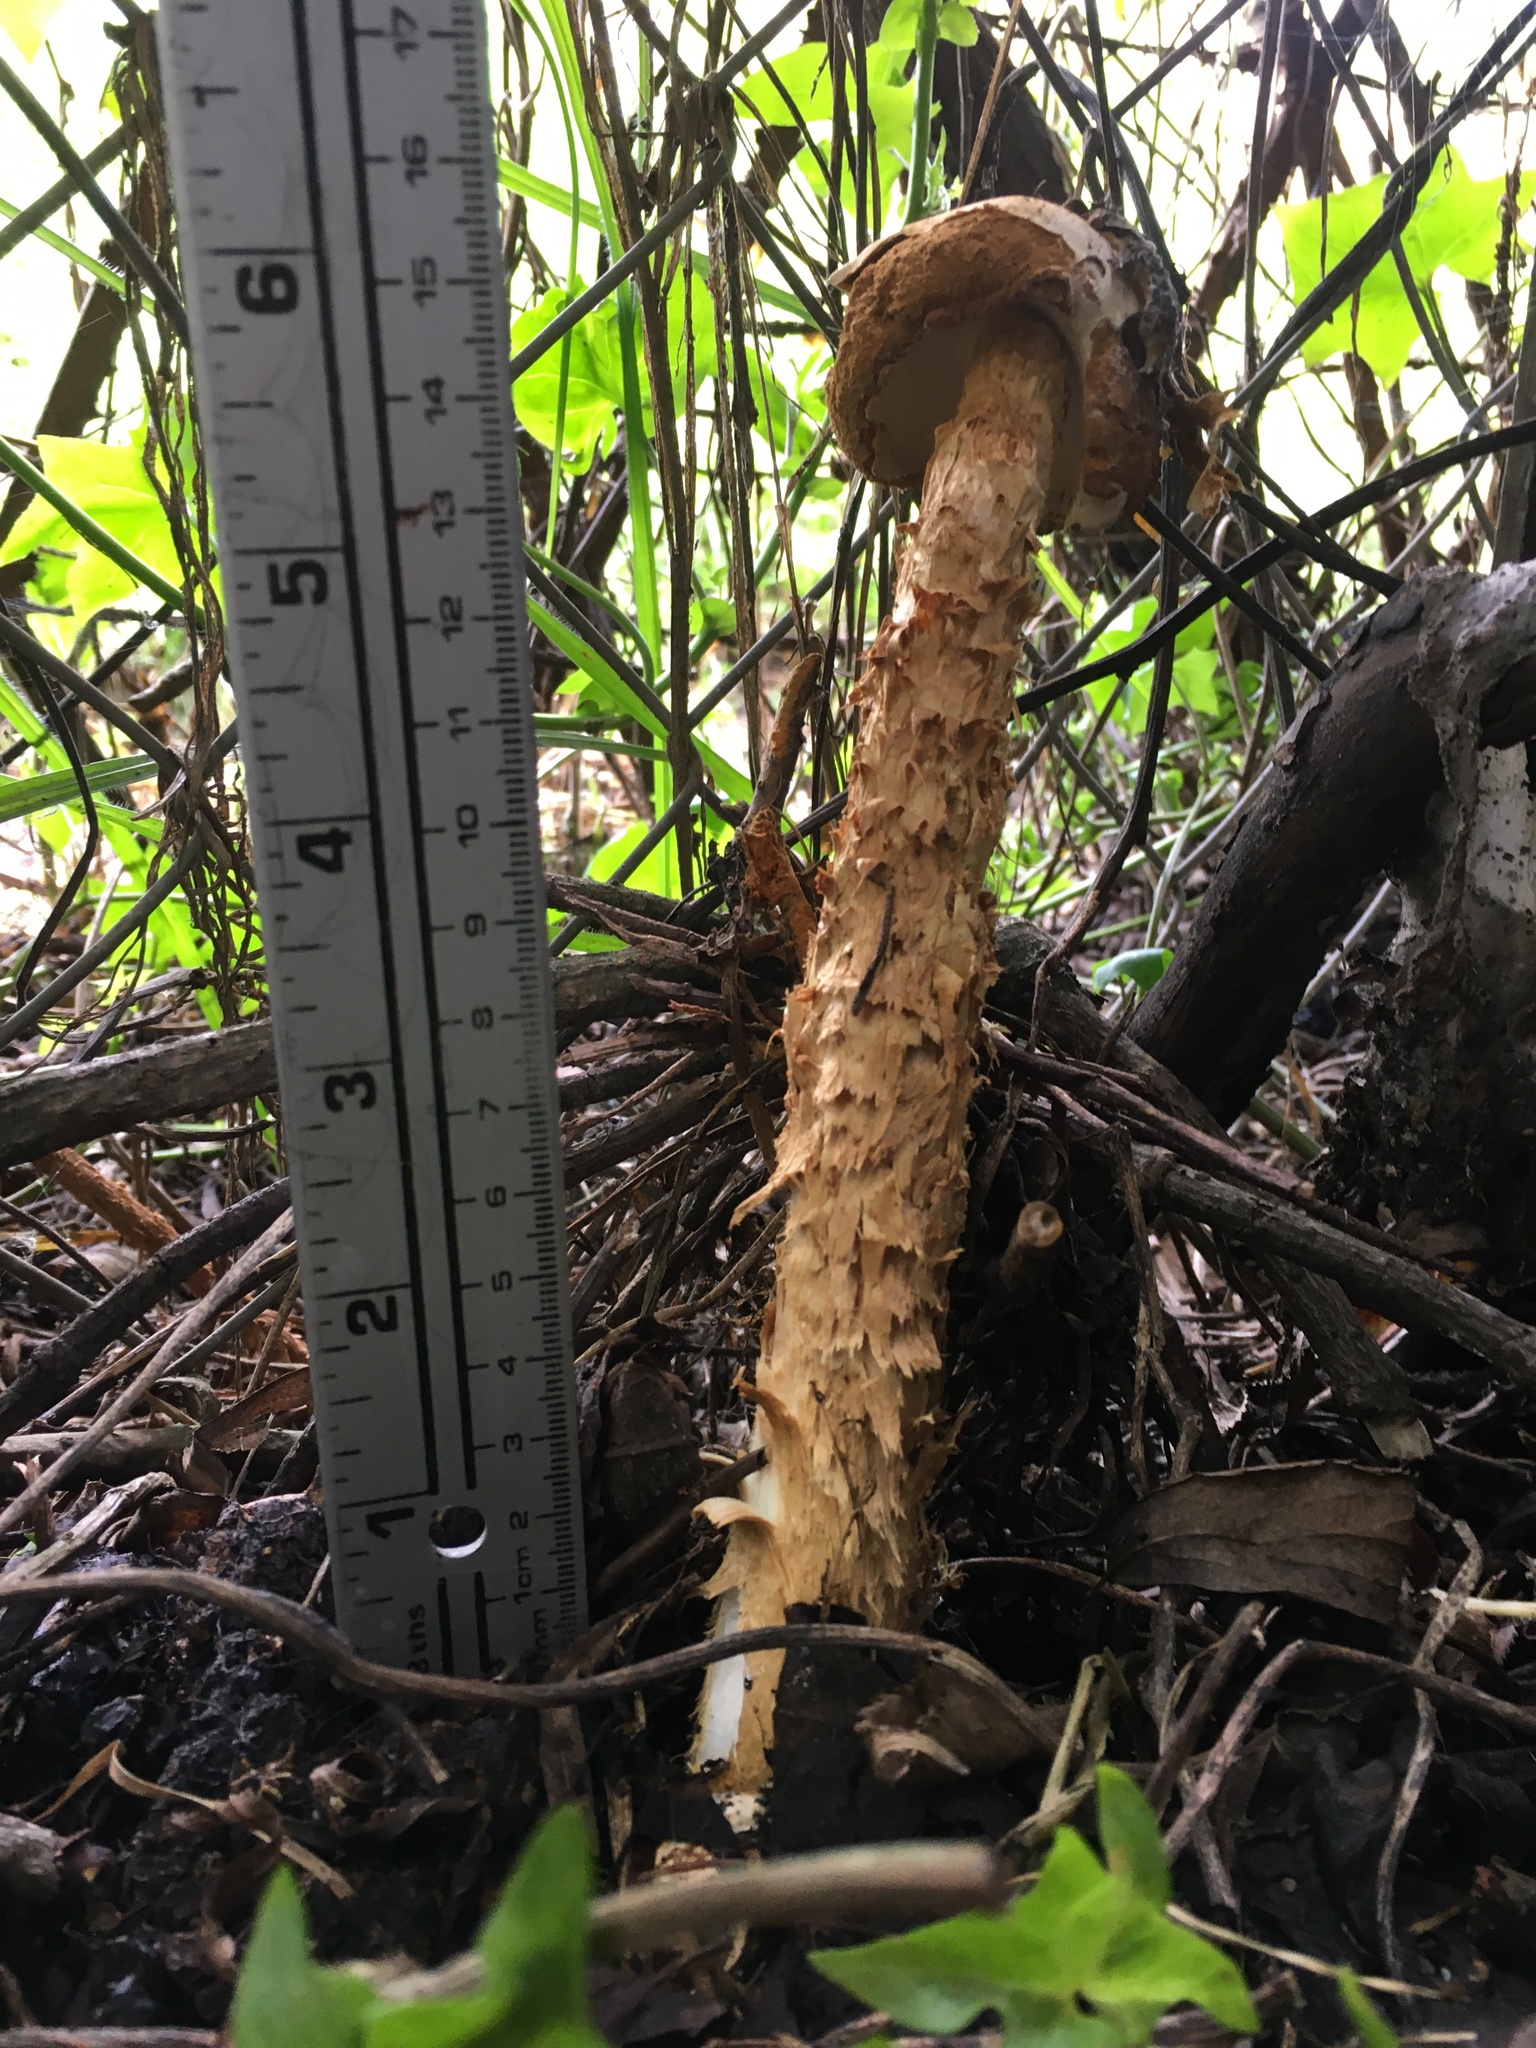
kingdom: Fungi
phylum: Basidiomycota
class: Agaricomycetes
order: Agaricales
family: Agaricaceae
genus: Battarrea
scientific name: Battarrea phalloides
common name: Sandy stiltball
